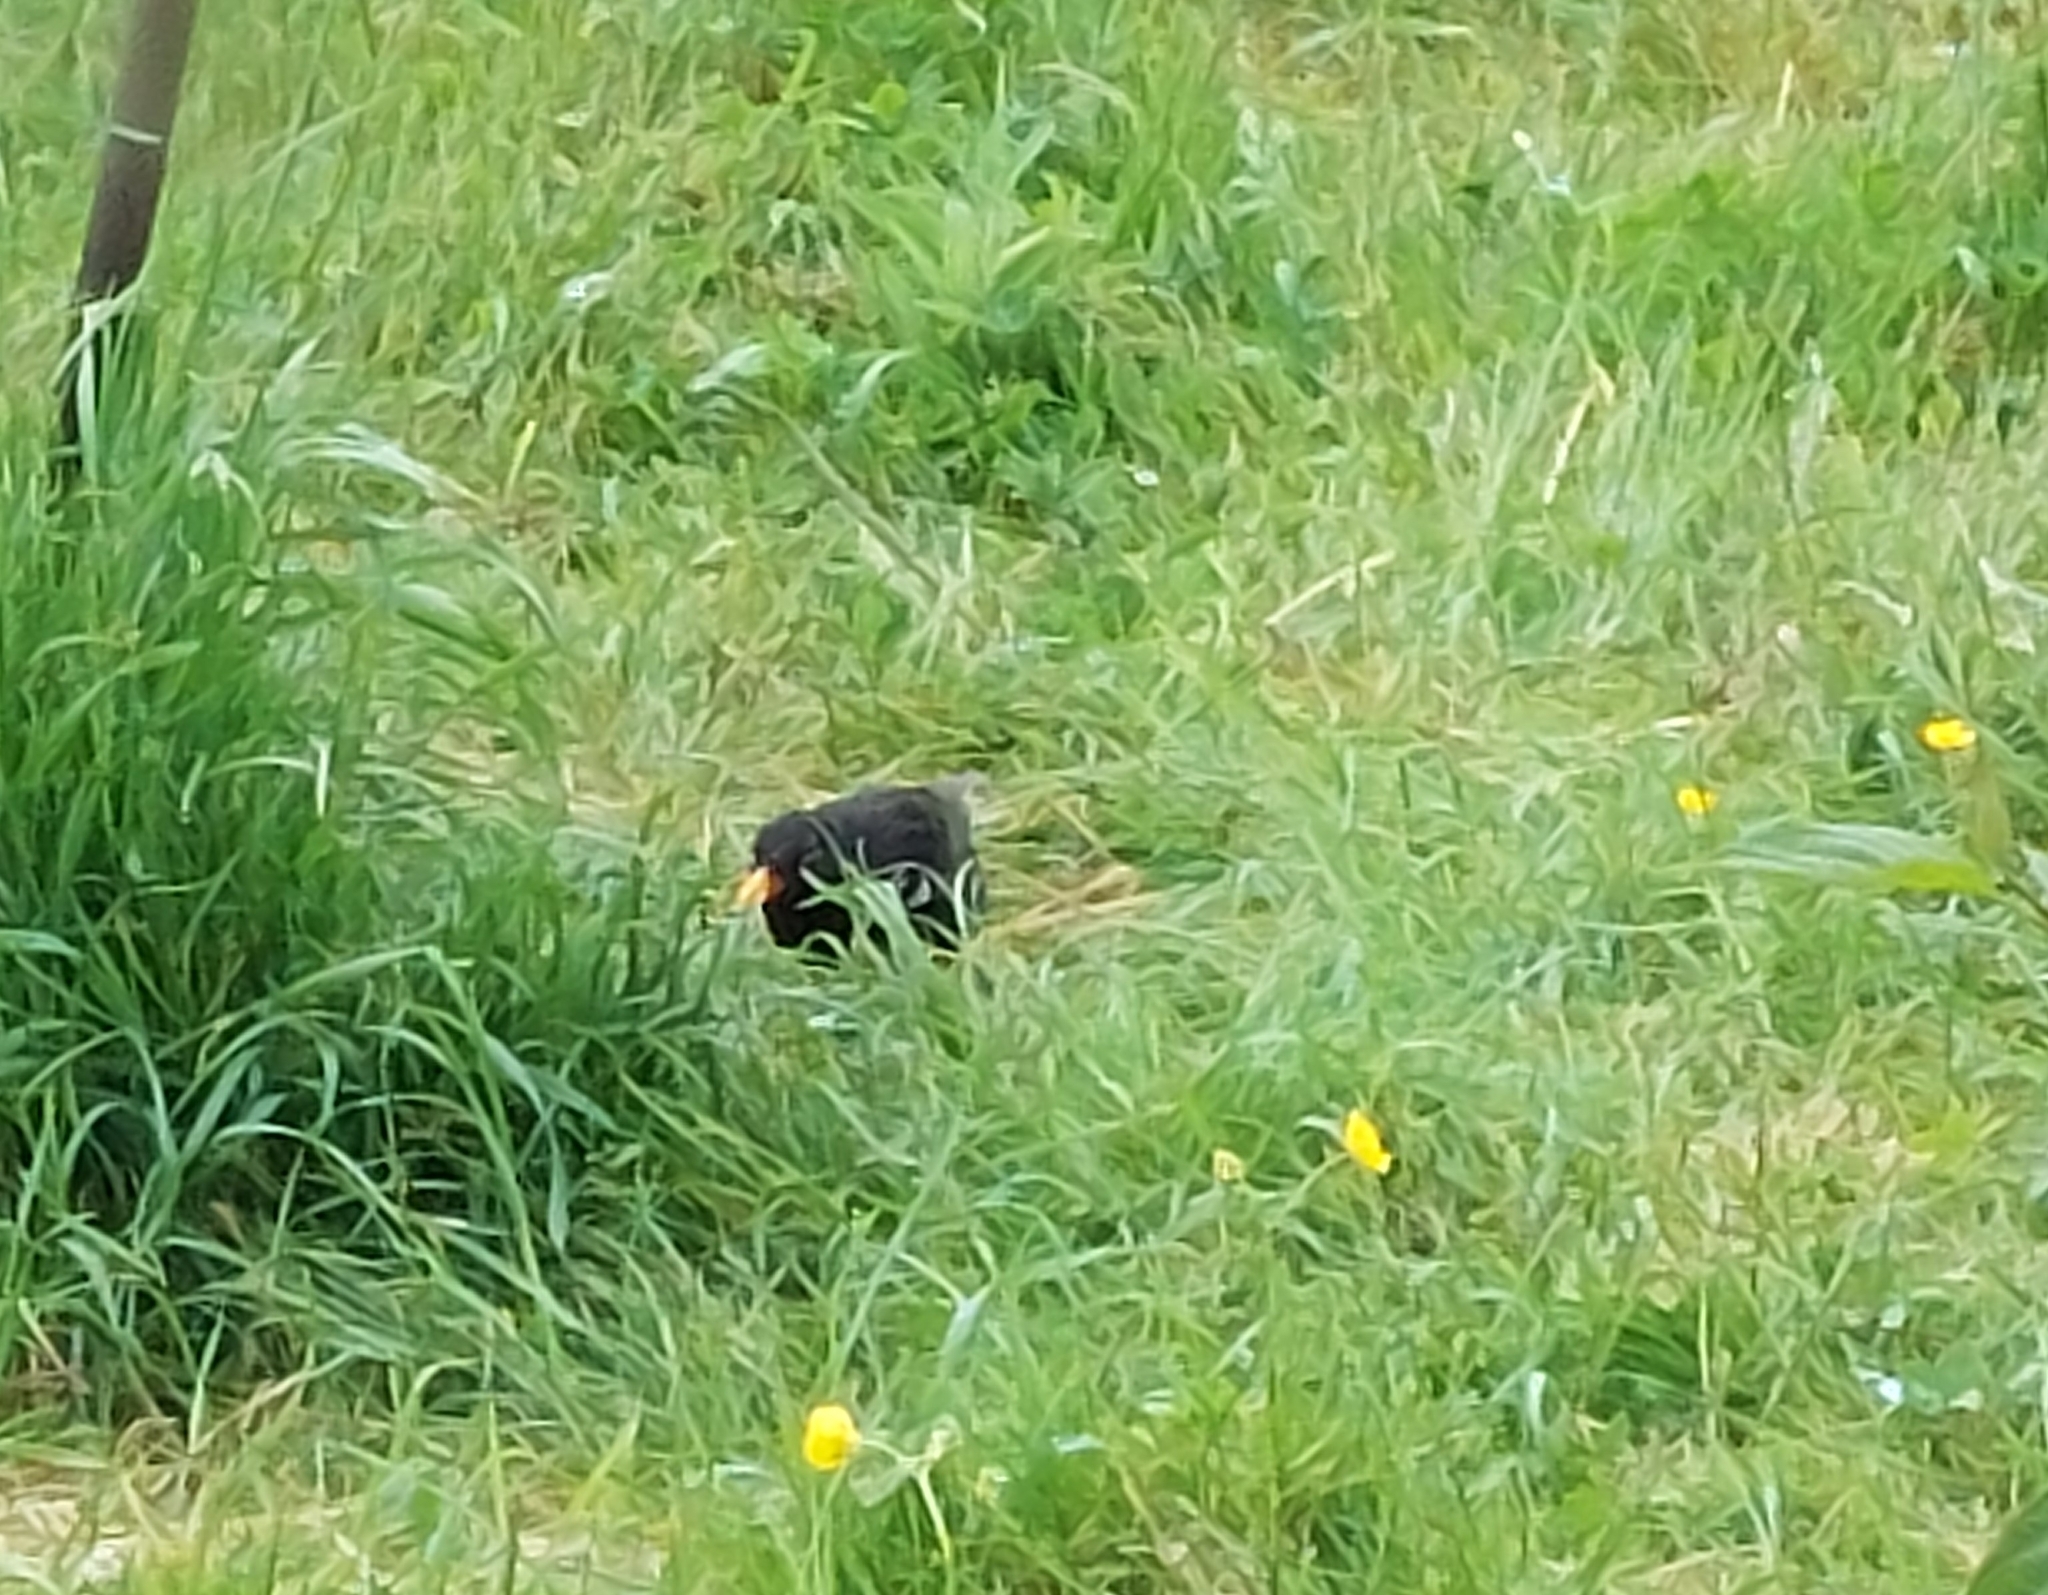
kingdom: Animalia
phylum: Chordata
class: Aves
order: Passeriformes
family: Turdidae
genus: Turdus
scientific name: Turdus merula
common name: Common blackbird
